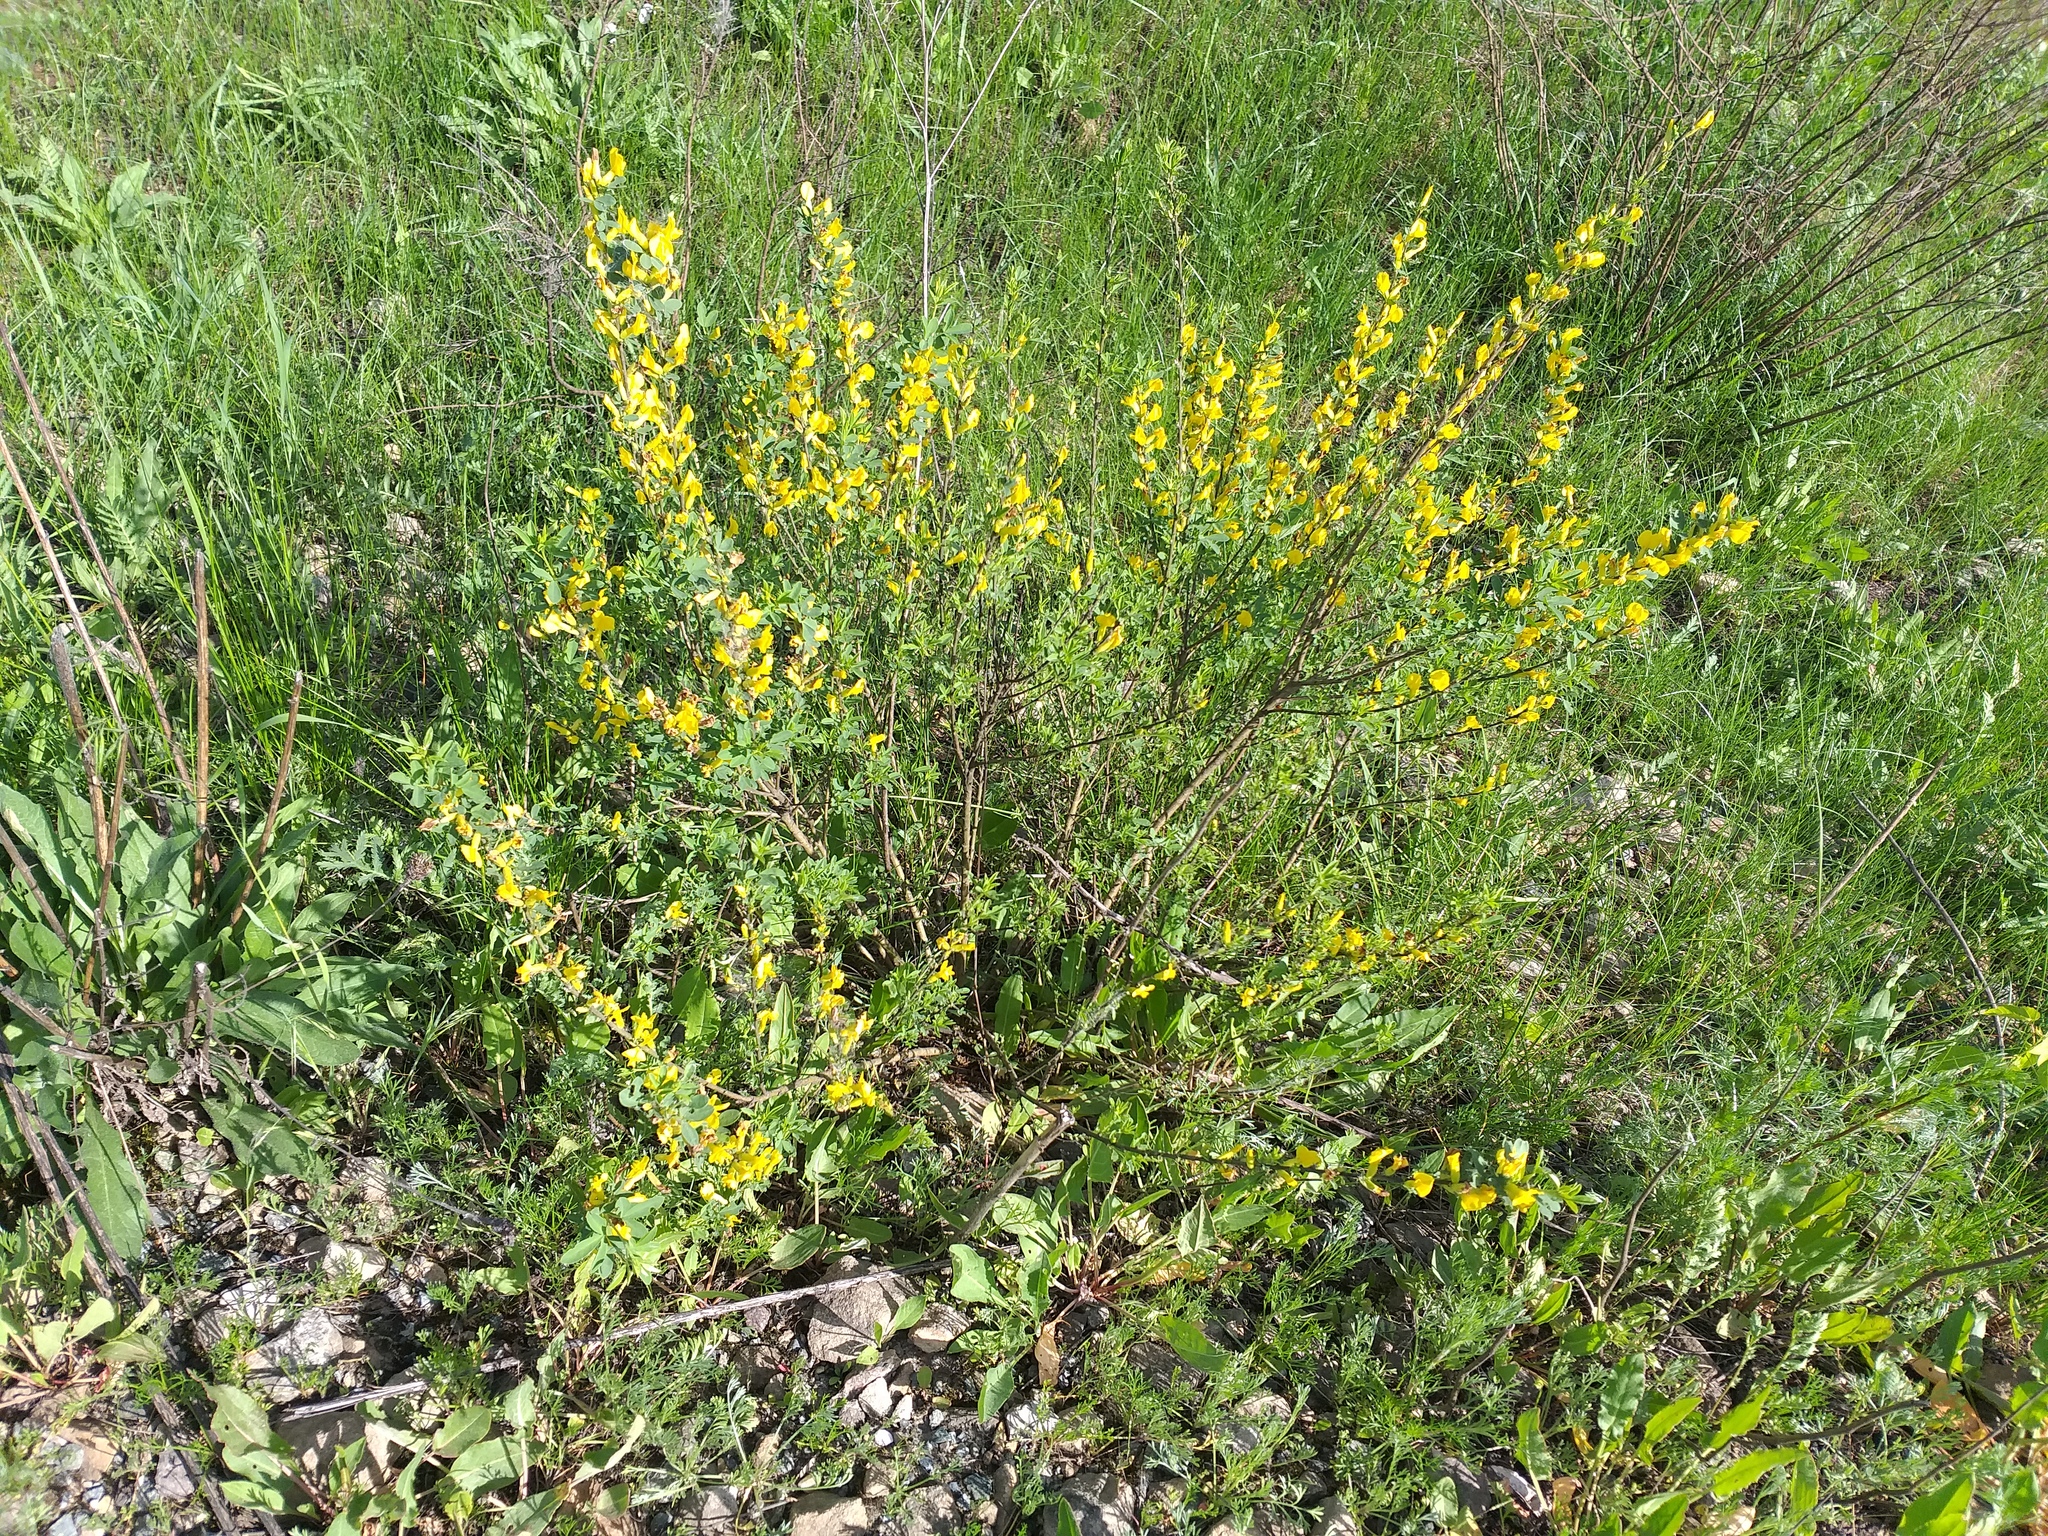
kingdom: Plantae
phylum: Tracheophyta
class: Magnoliopsida
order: Fabales
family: Fabaceae
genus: Chamaecytisus
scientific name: Chamaecytisus ruthenicus
